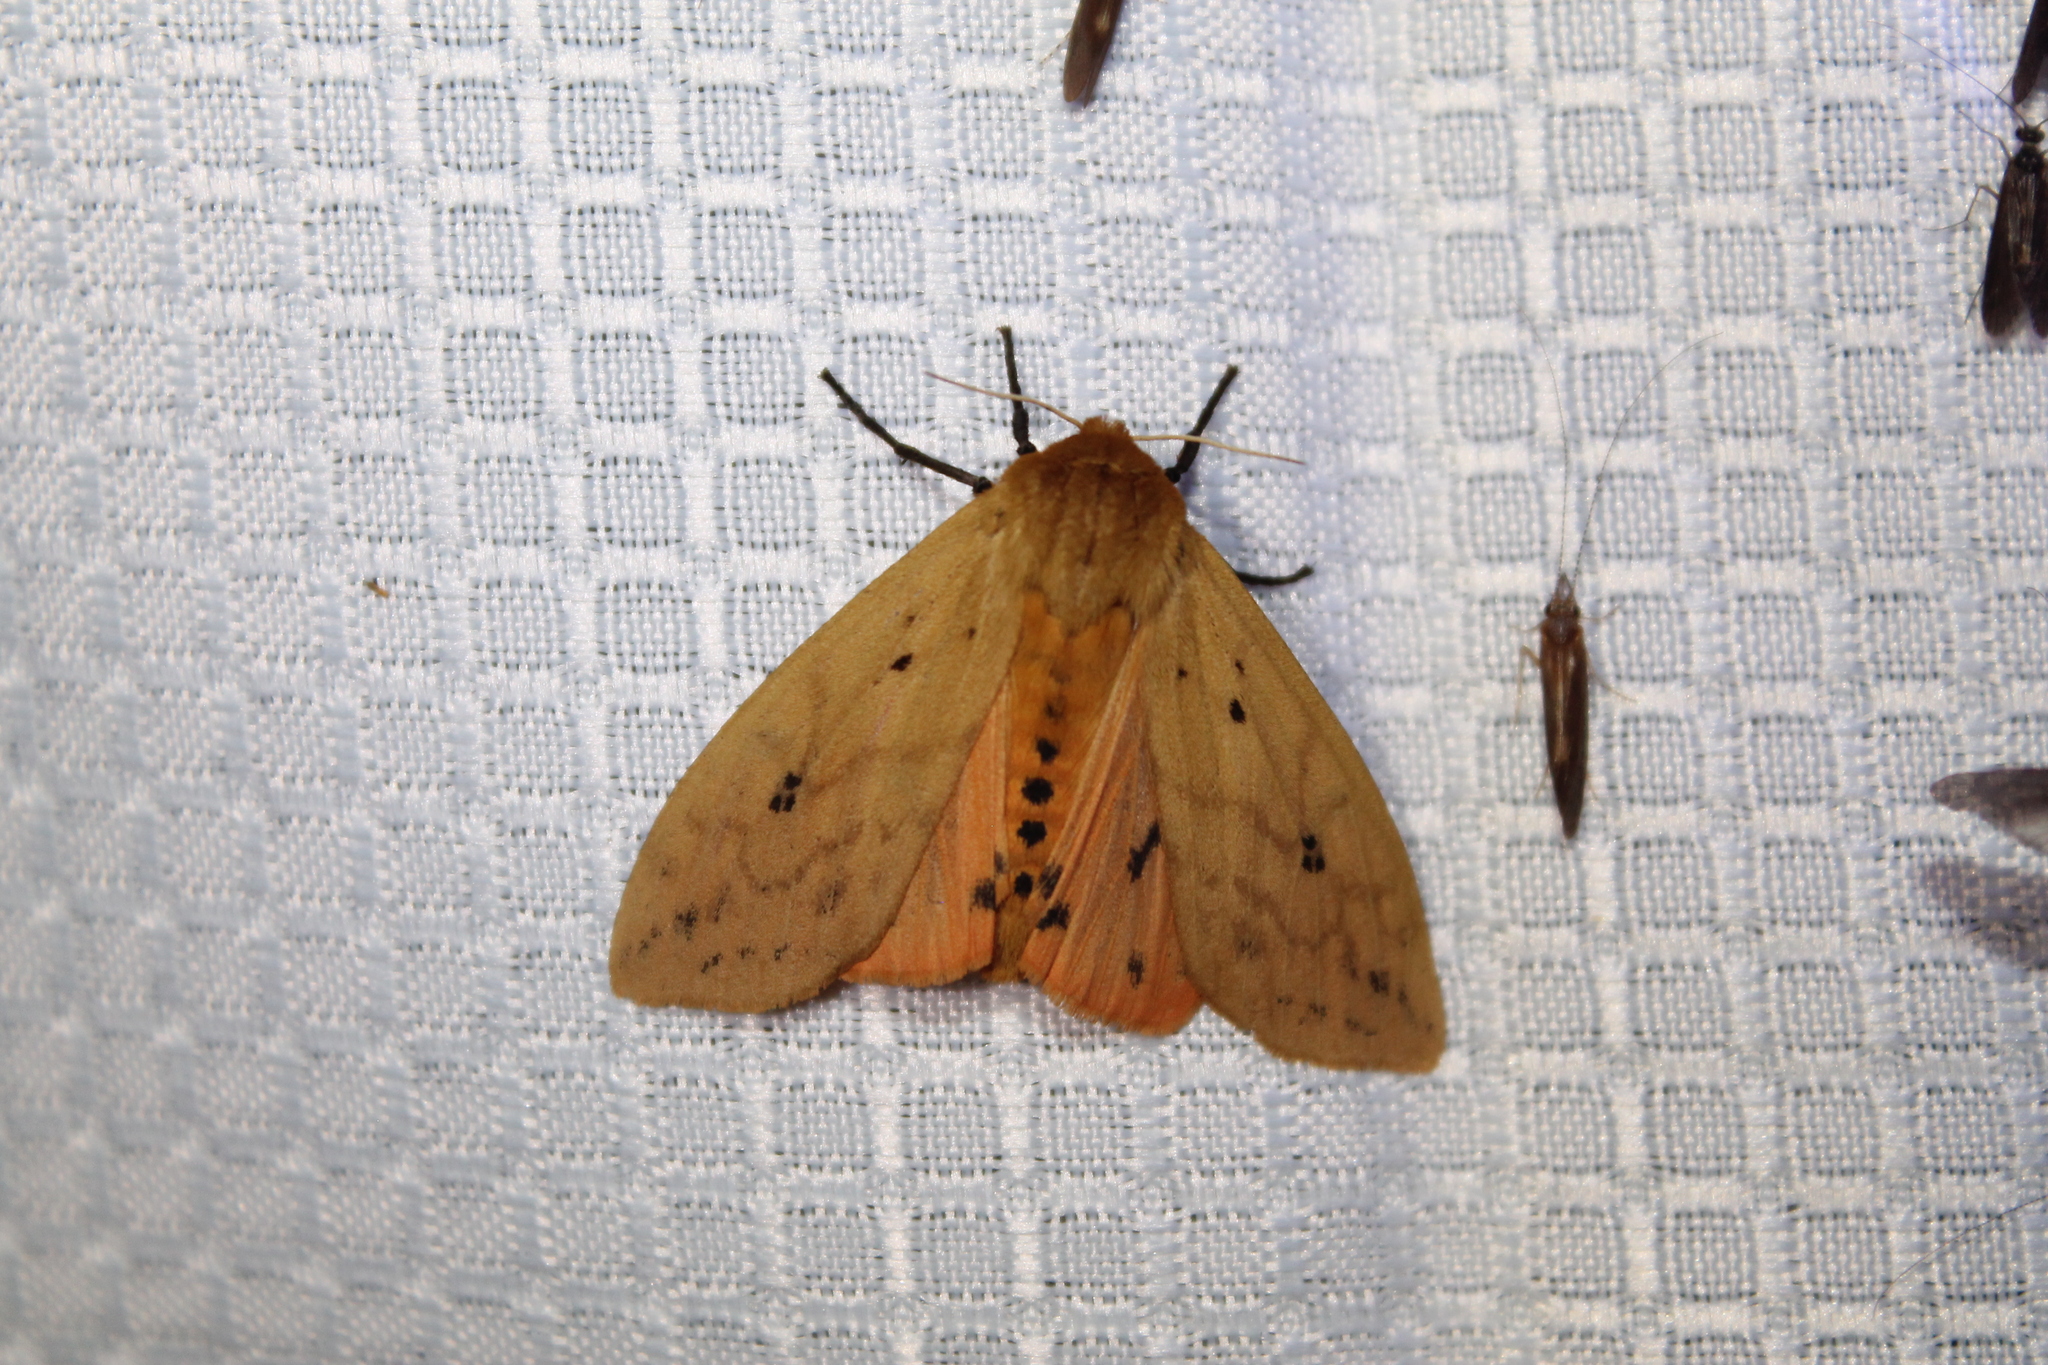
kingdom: Animalia
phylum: Arthropoda
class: Insecta
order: Lepidoptera
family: Erebidae
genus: Pyrrharctia
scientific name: Pyrrharctia isabella
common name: Isabella tiger moth
